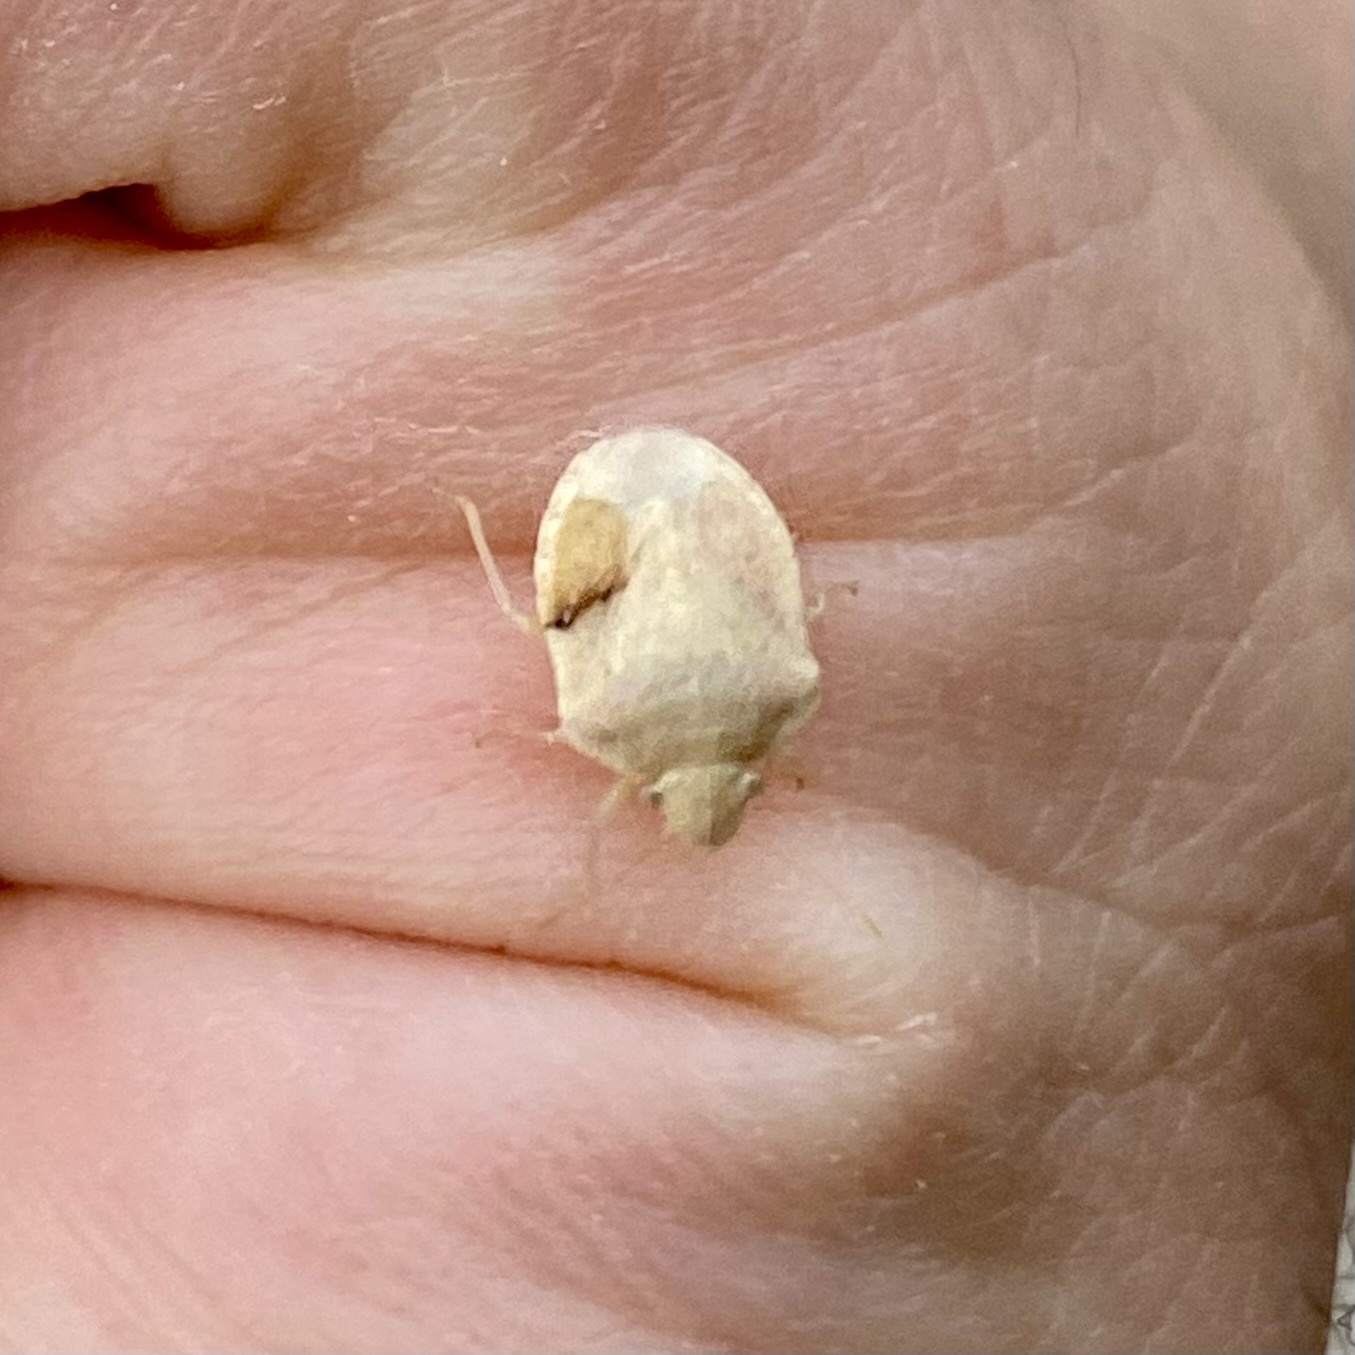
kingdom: Animalia
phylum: Arthropoda
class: Insecta
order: Hemiptera
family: Pentatomidae
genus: Tepa
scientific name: Tepa
